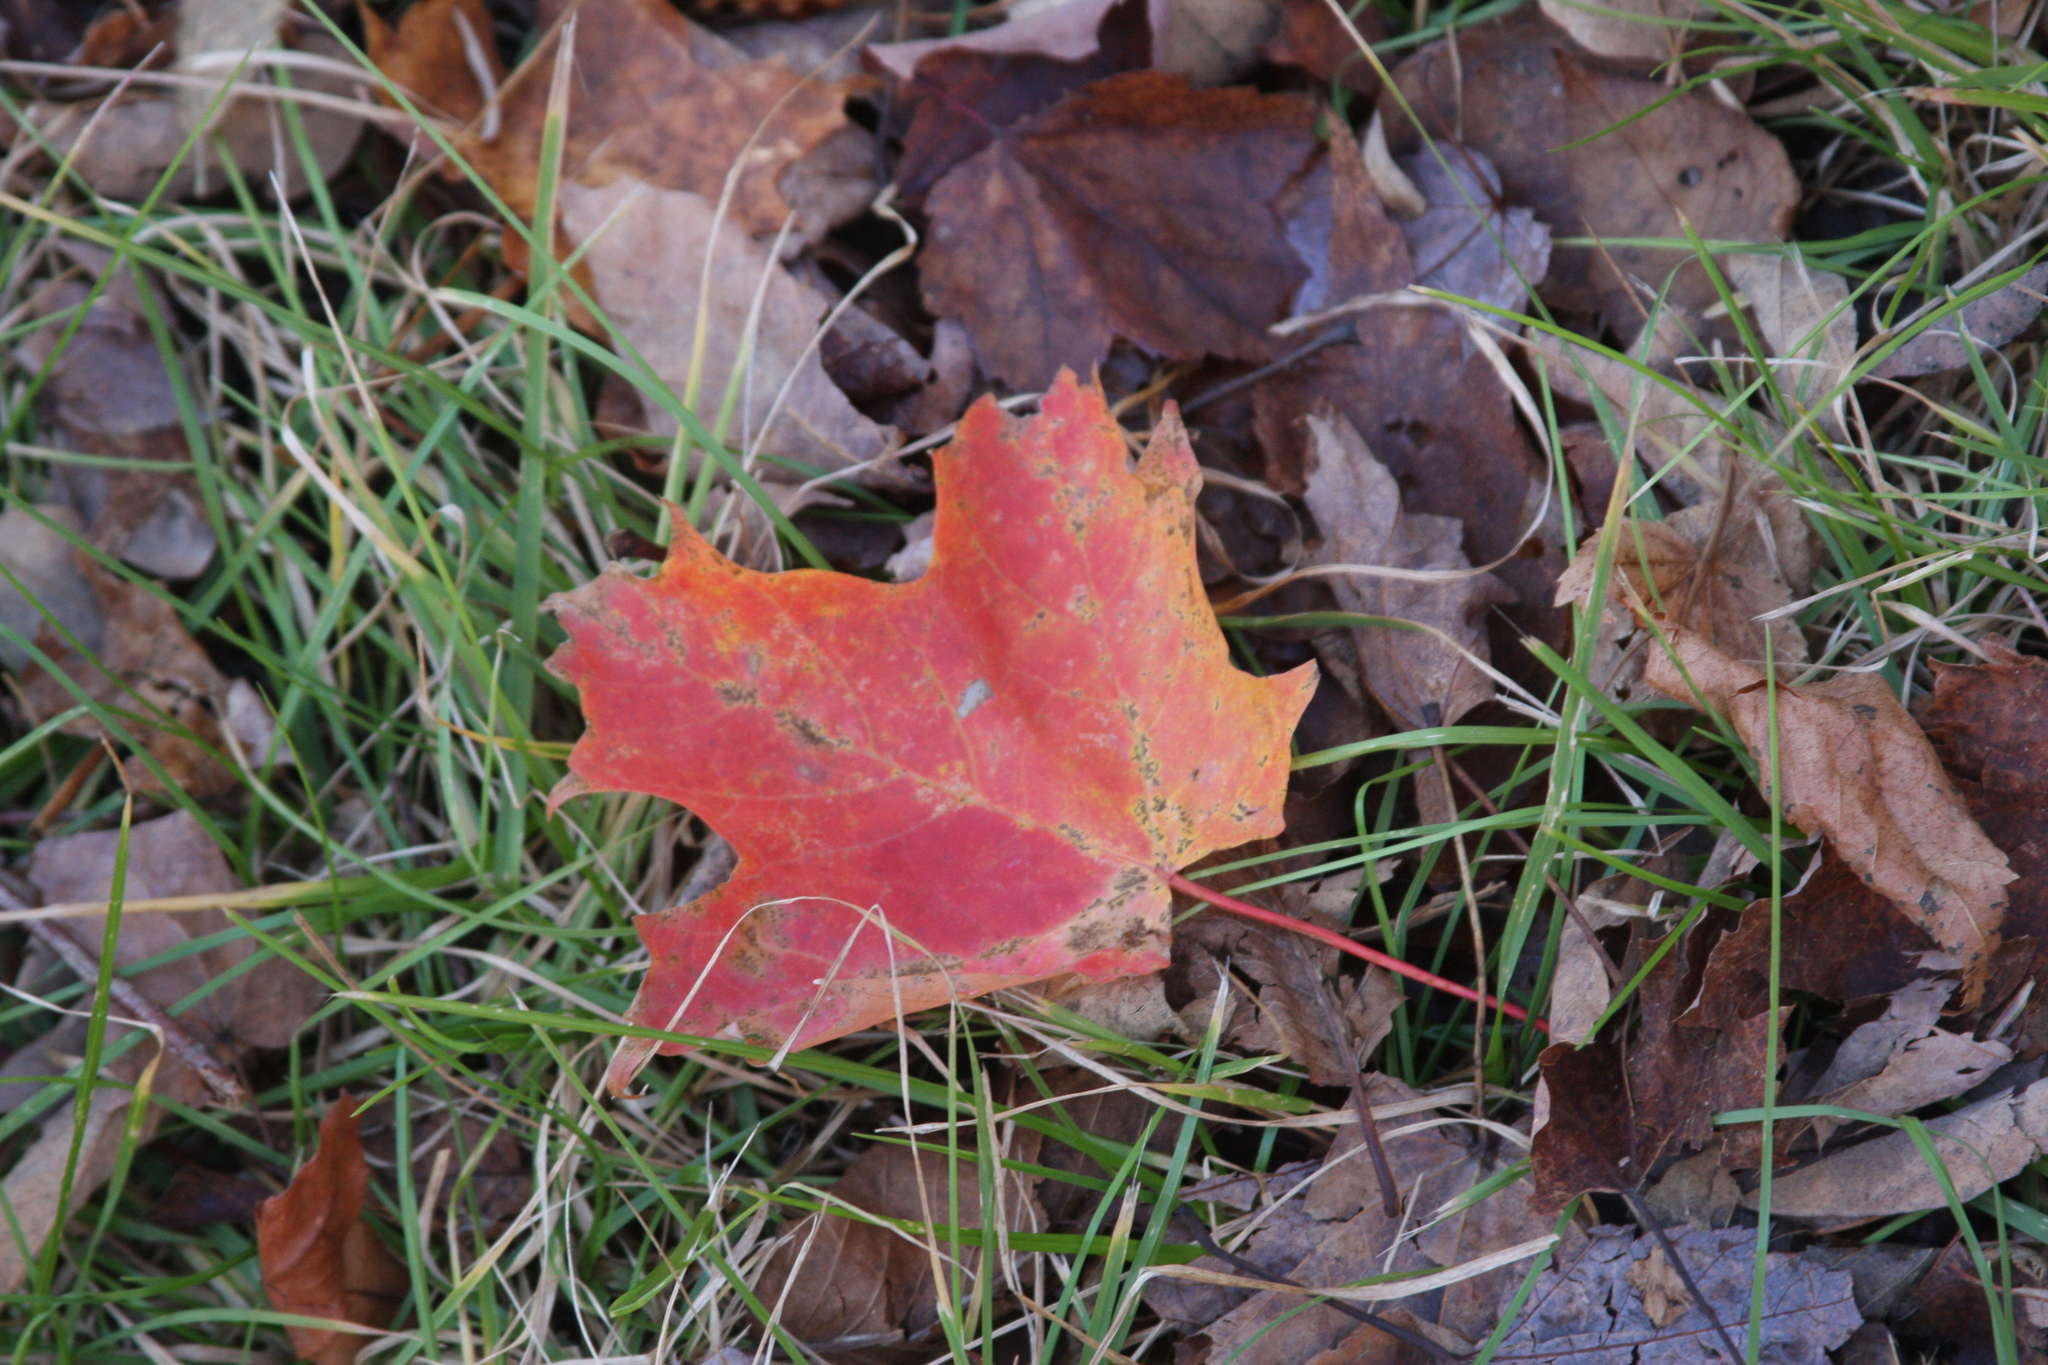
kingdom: Plantae
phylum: Tracheophyta
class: Magnoliopsida
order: Sapindales
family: Sapindaceae
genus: Acer
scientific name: Acer saccharum
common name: Sugar maple
